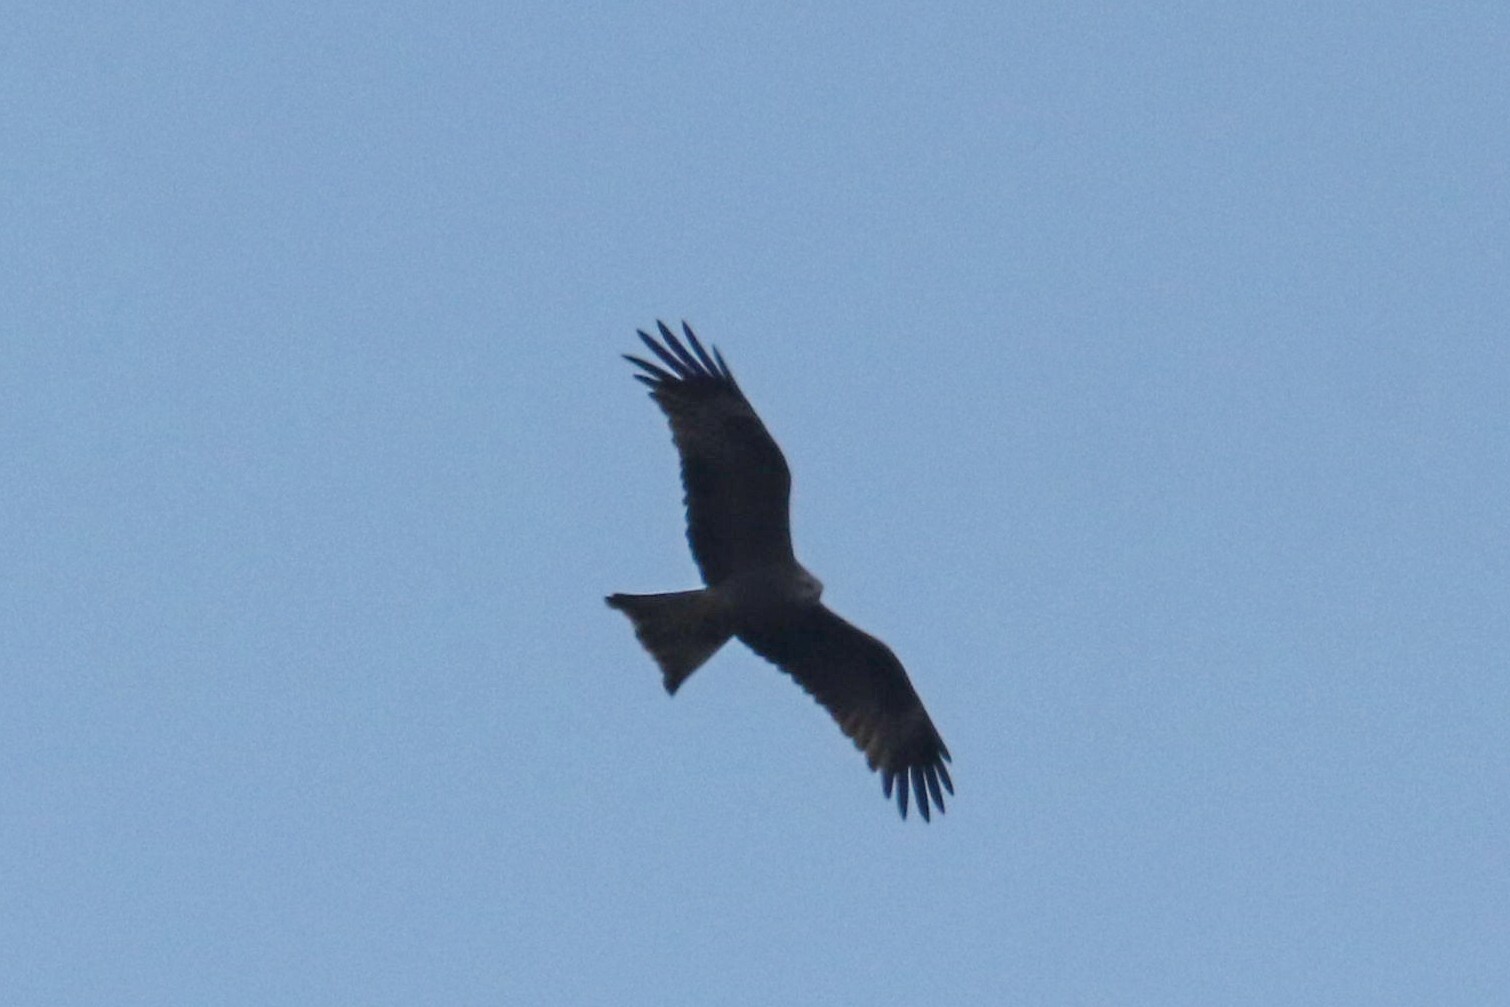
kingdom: Animalia
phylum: Chordata
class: Aves
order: Accipitriformes
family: Accipitridae
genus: Milvus
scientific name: Milvus migrans
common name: Black kite
